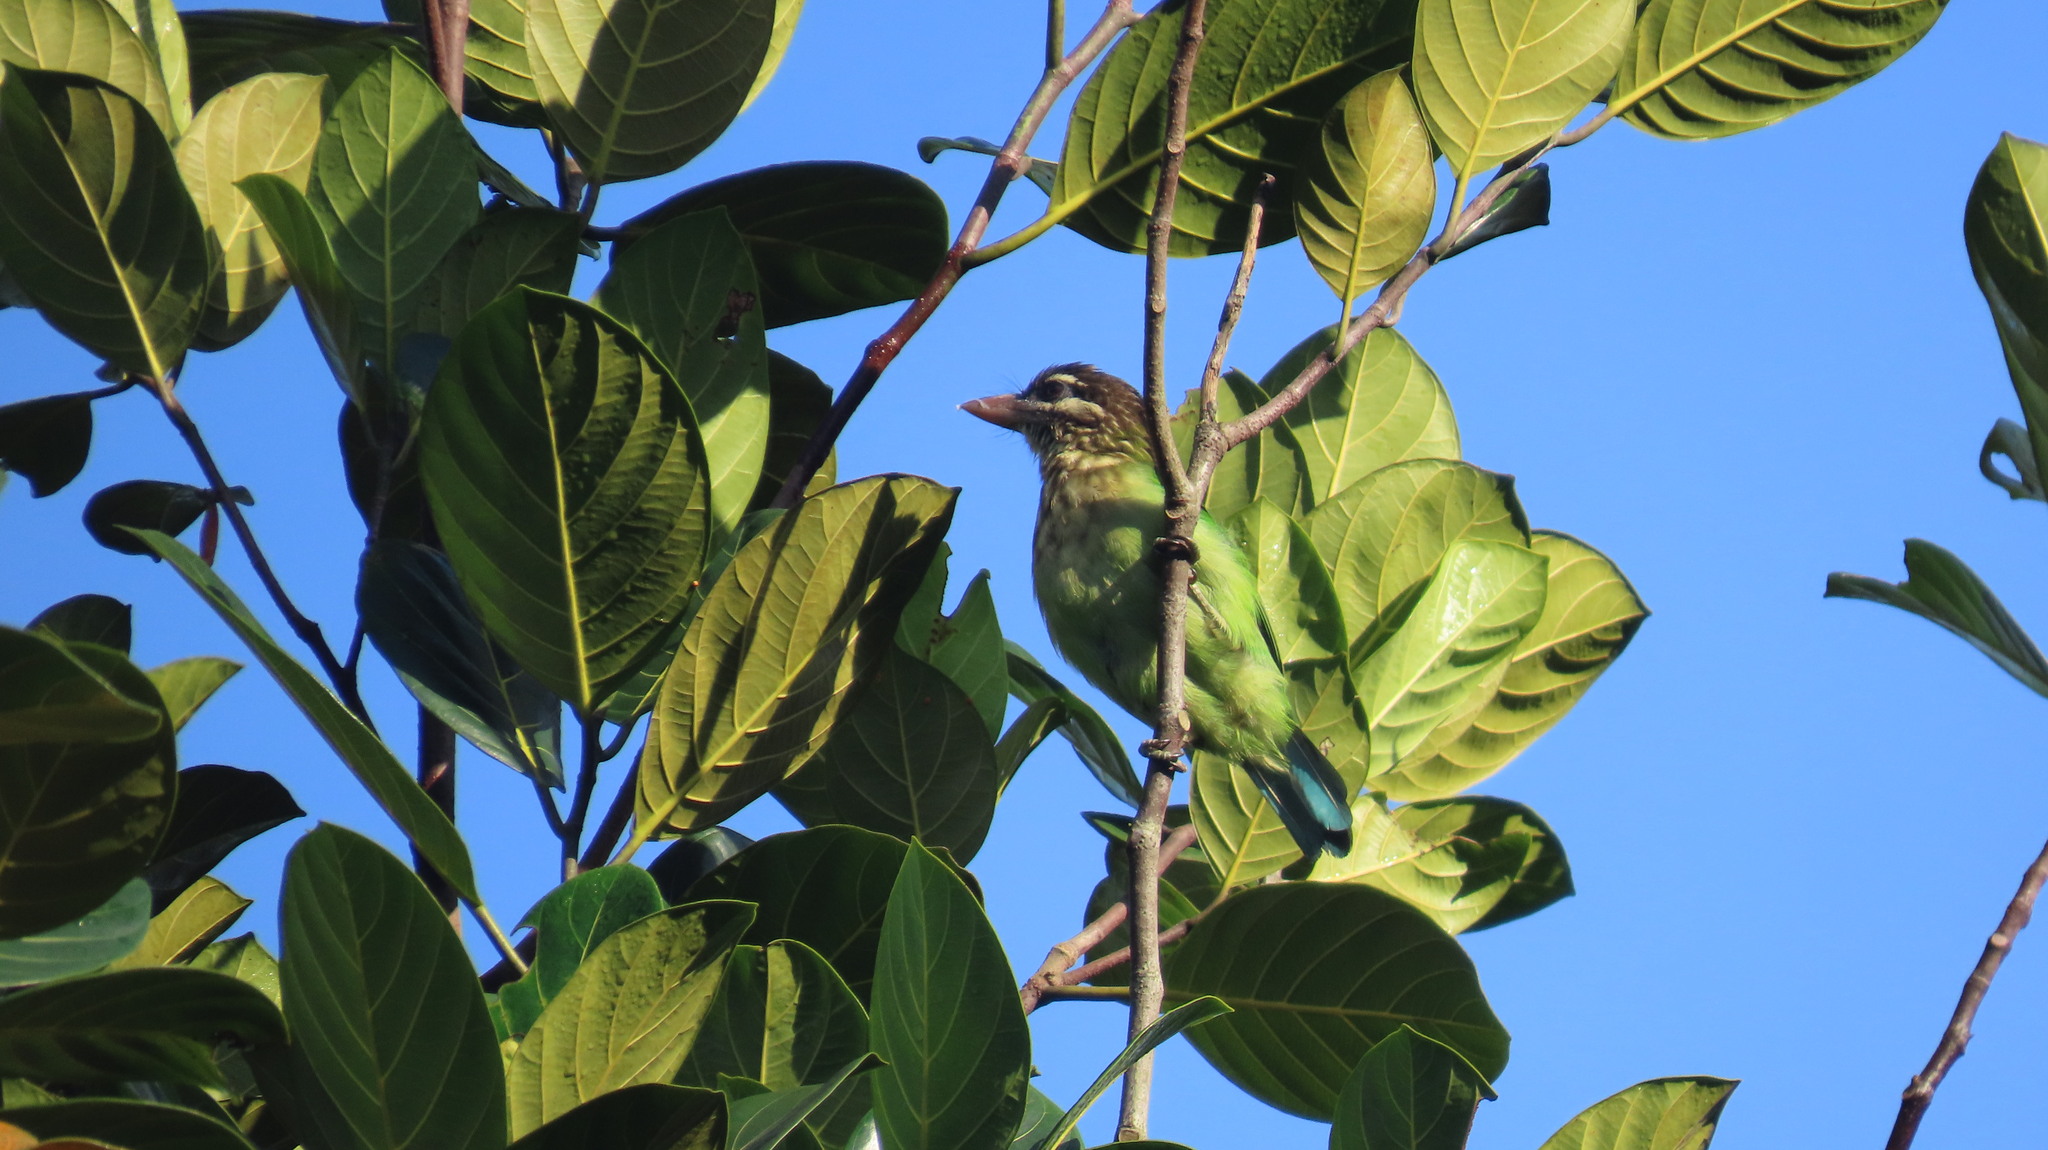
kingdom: Animalia
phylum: Chordata
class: Aves
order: Piciformes
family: Megalaimidae
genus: Psilopogon
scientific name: Psilopogon viridis
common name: White-cheeked barbet
